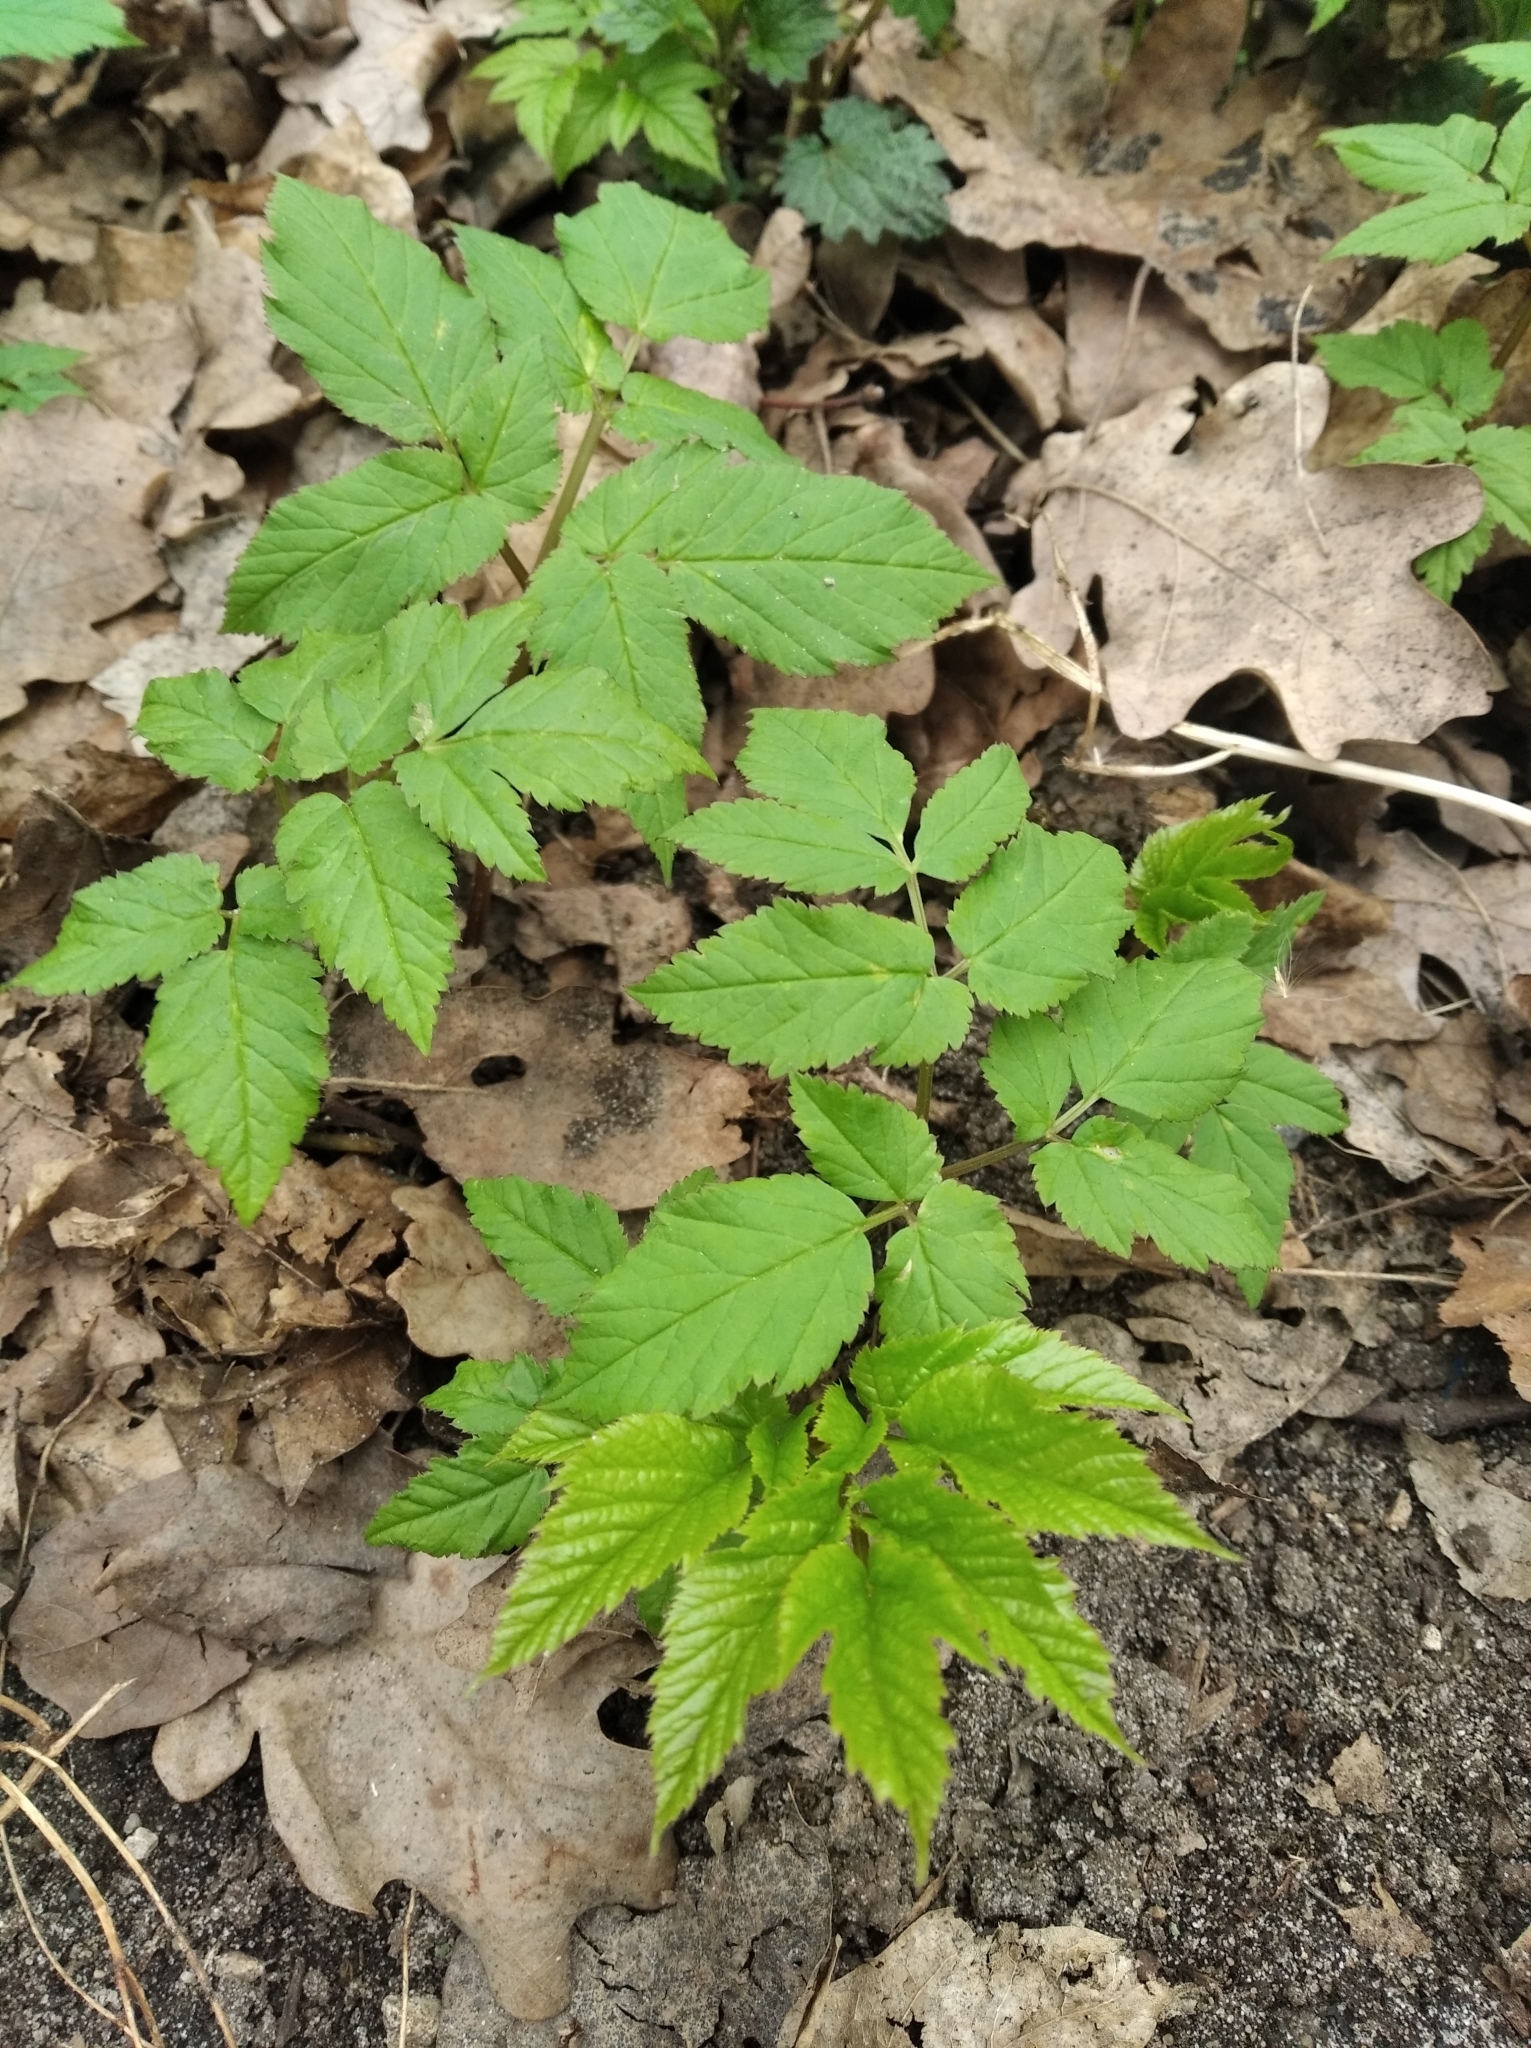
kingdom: Plantae
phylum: Tracheophyta
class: Magnoliopsida
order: Apiales
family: Apiaceae
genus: Aegopodium
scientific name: Aegopodium podagraria
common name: Ground-elder
